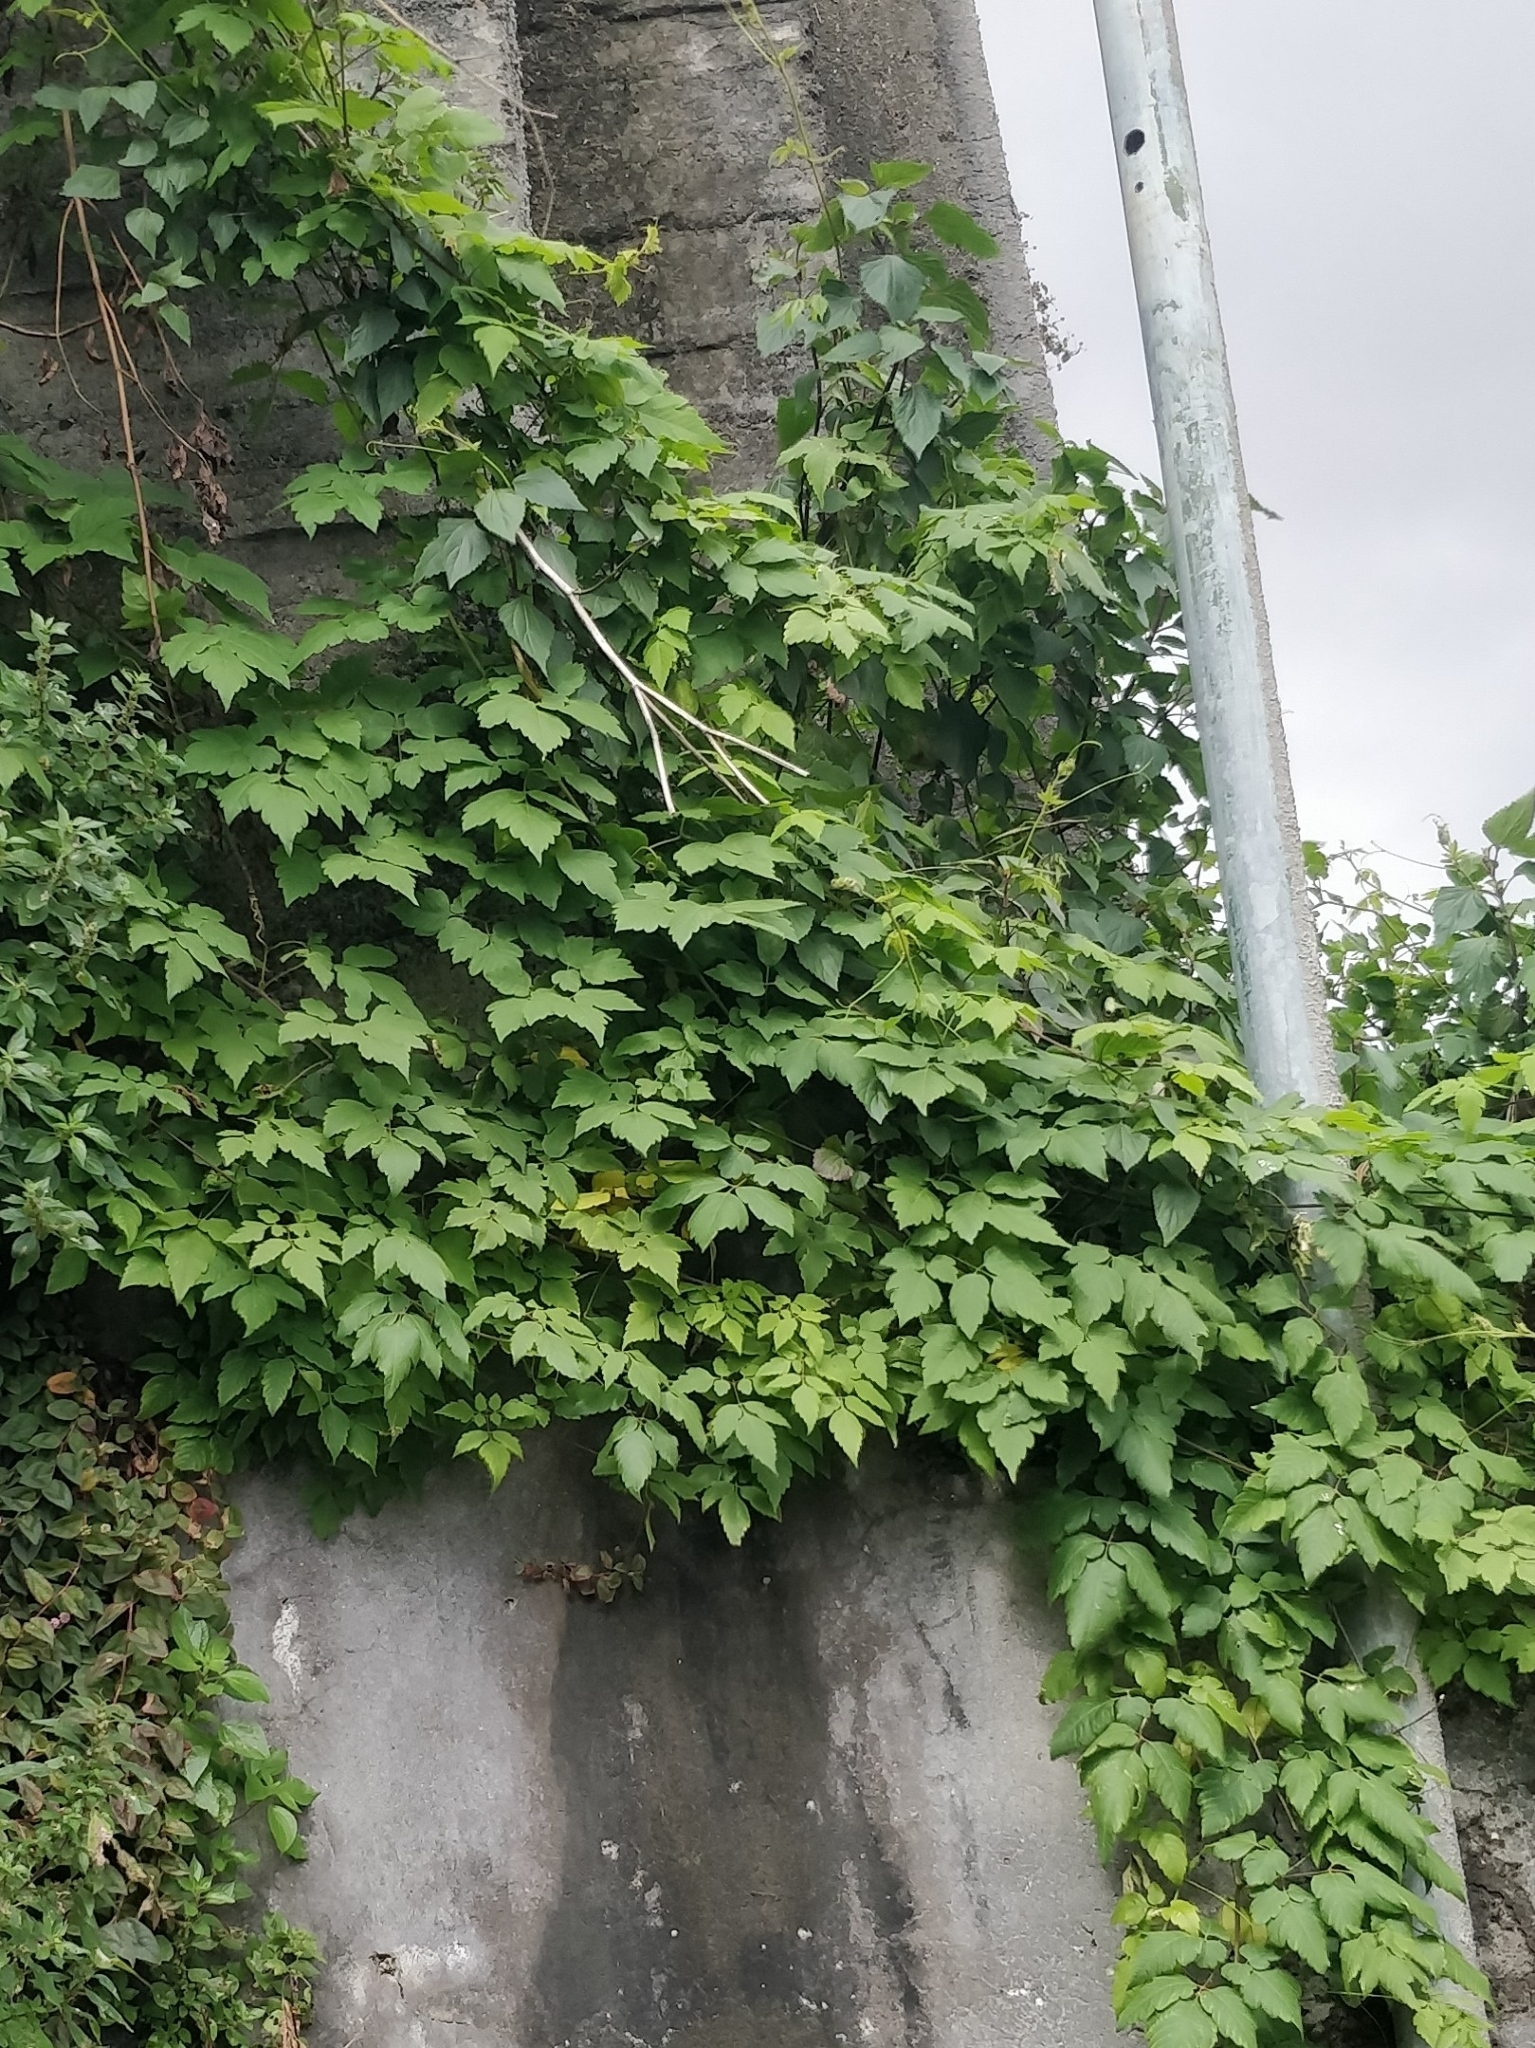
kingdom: Plantae
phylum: Tracheophyta
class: Magnoliopsida
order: Sapindales
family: Sapindaceae
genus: Cardiospermum
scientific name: Cardiospermum grandiflorum
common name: Balloon vine
